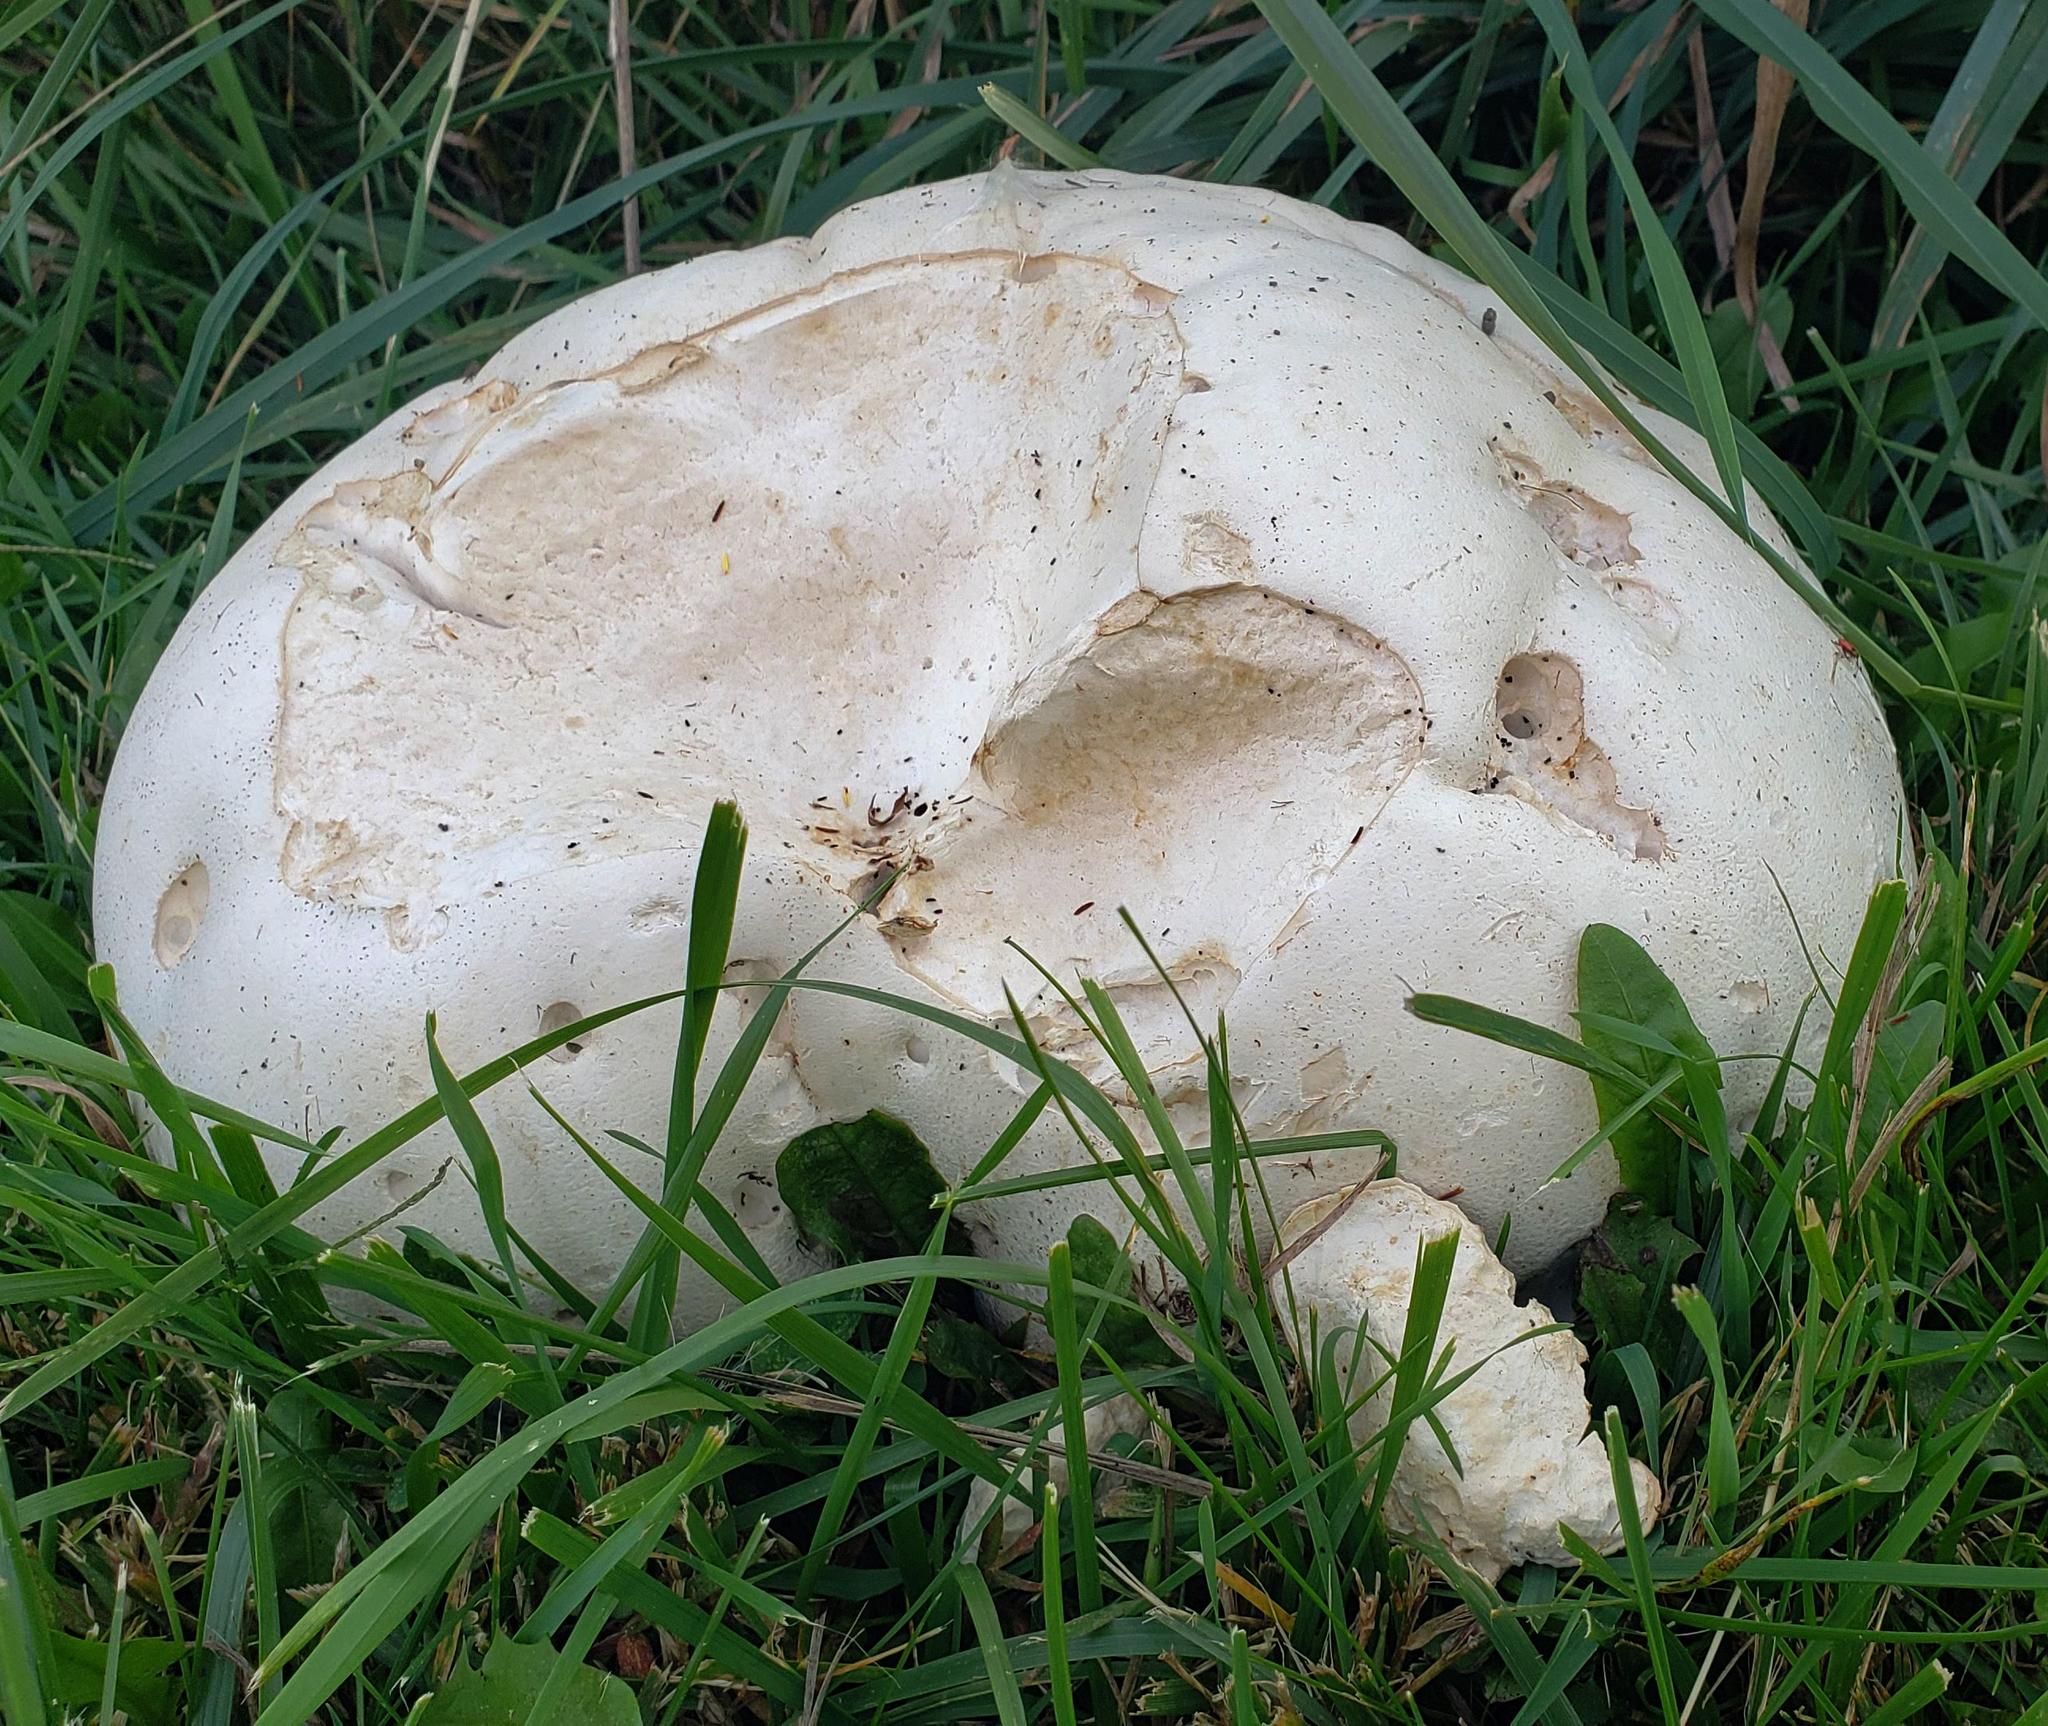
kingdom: Fungi
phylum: Basidiomycota
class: Agaricomycetes
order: Agaricales
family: Lycoperdaceae
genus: Calvatia
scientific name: Calvatia gigantea
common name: Giant puffball
